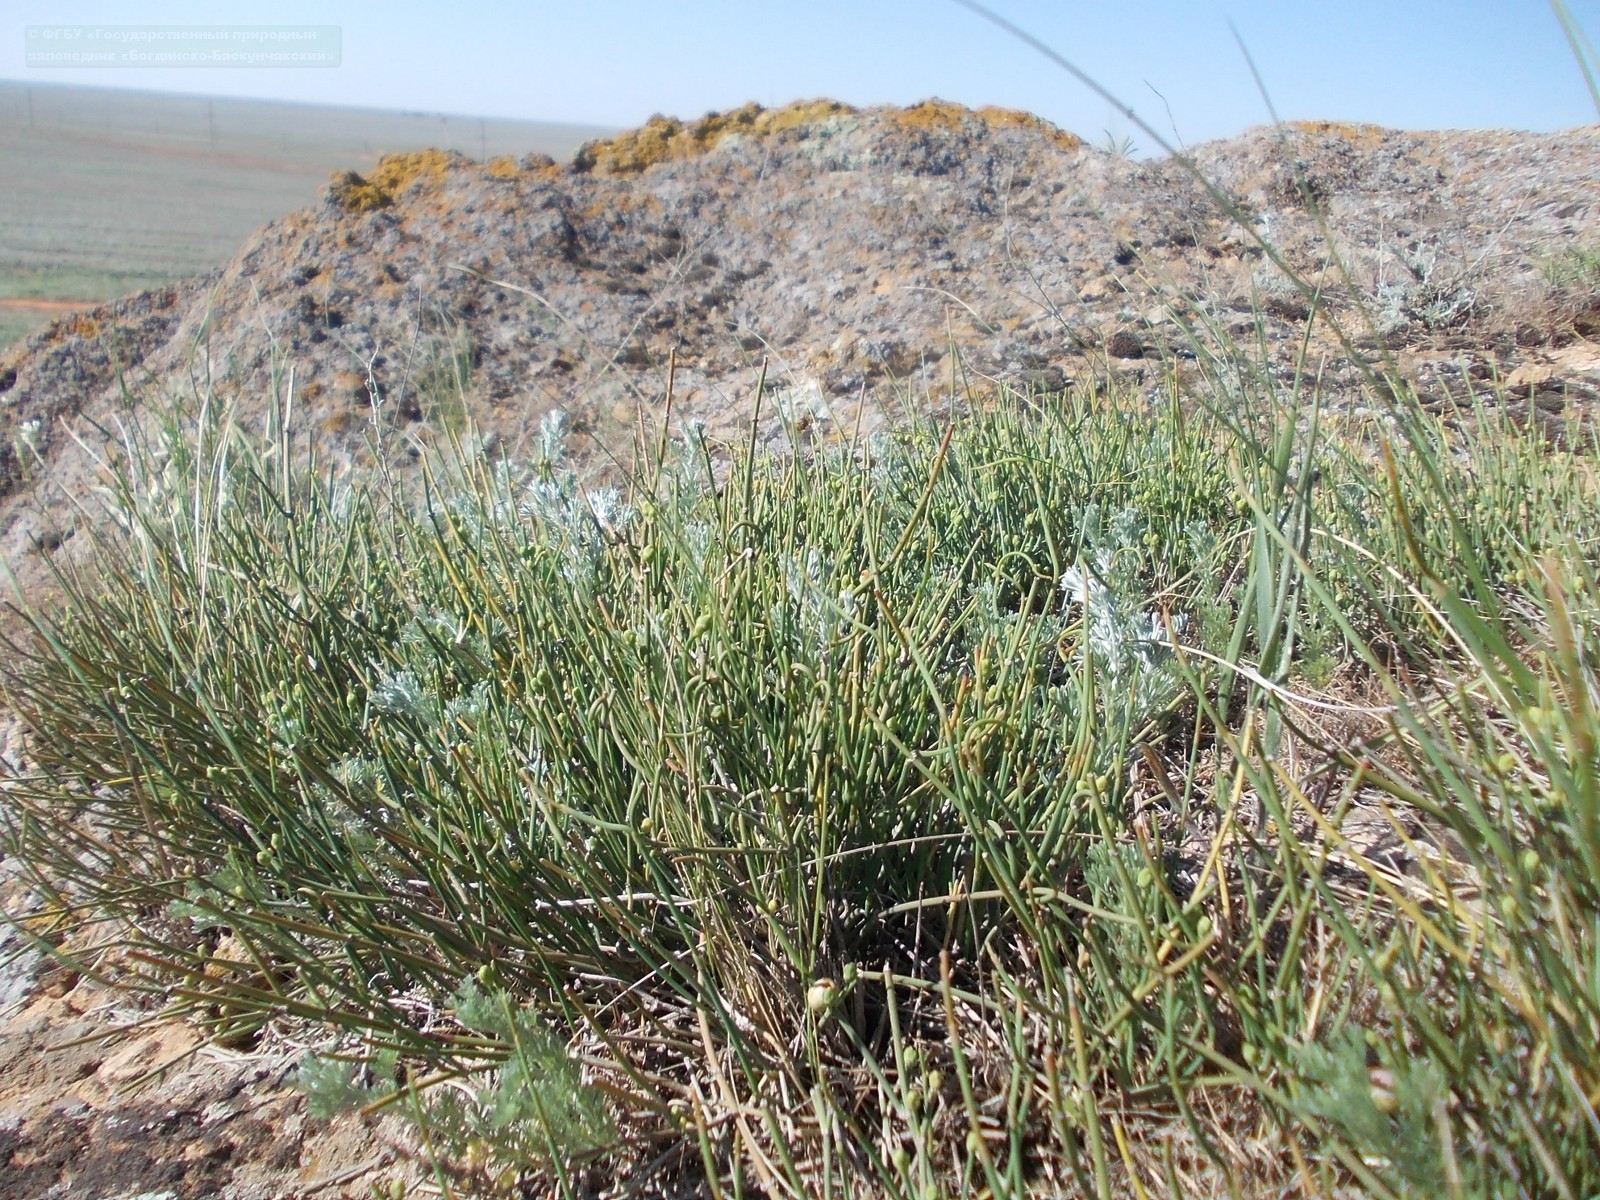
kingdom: Plantae
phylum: Tracheophyta
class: Gnetopsida
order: Ephedrales
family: Ephedraceae
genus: Ephedra
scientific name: Ephedra distachya
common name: Sea grape
